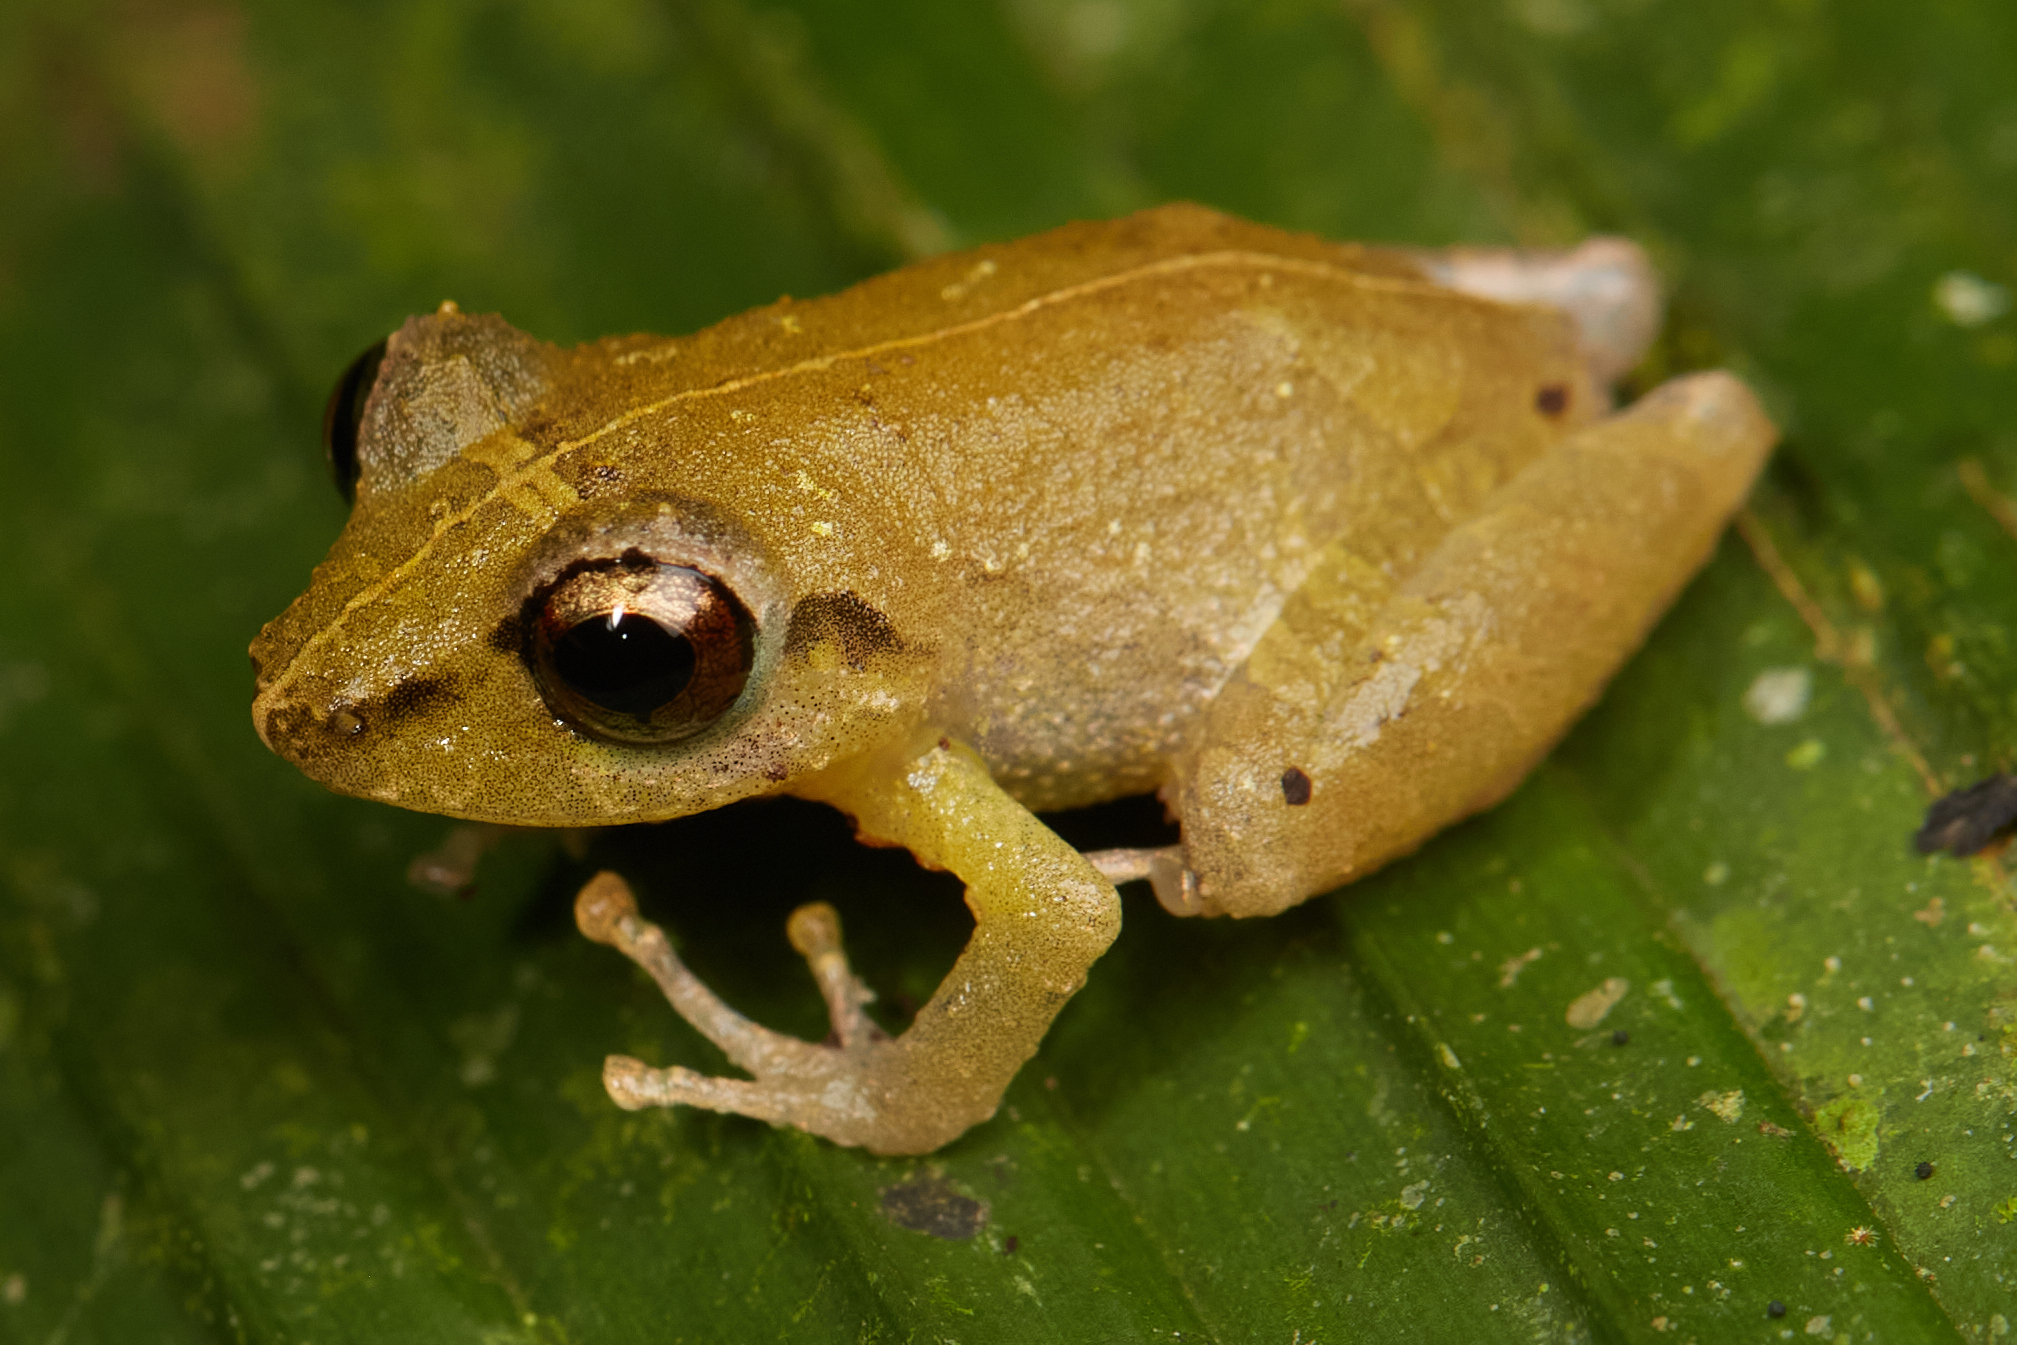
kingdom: Animalia
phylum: Chordata
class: Amphibia
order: Anura
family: Craugastoridae
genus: Pristimantis
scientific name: Pristimantis ridens
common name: Rio san juan robber frog
